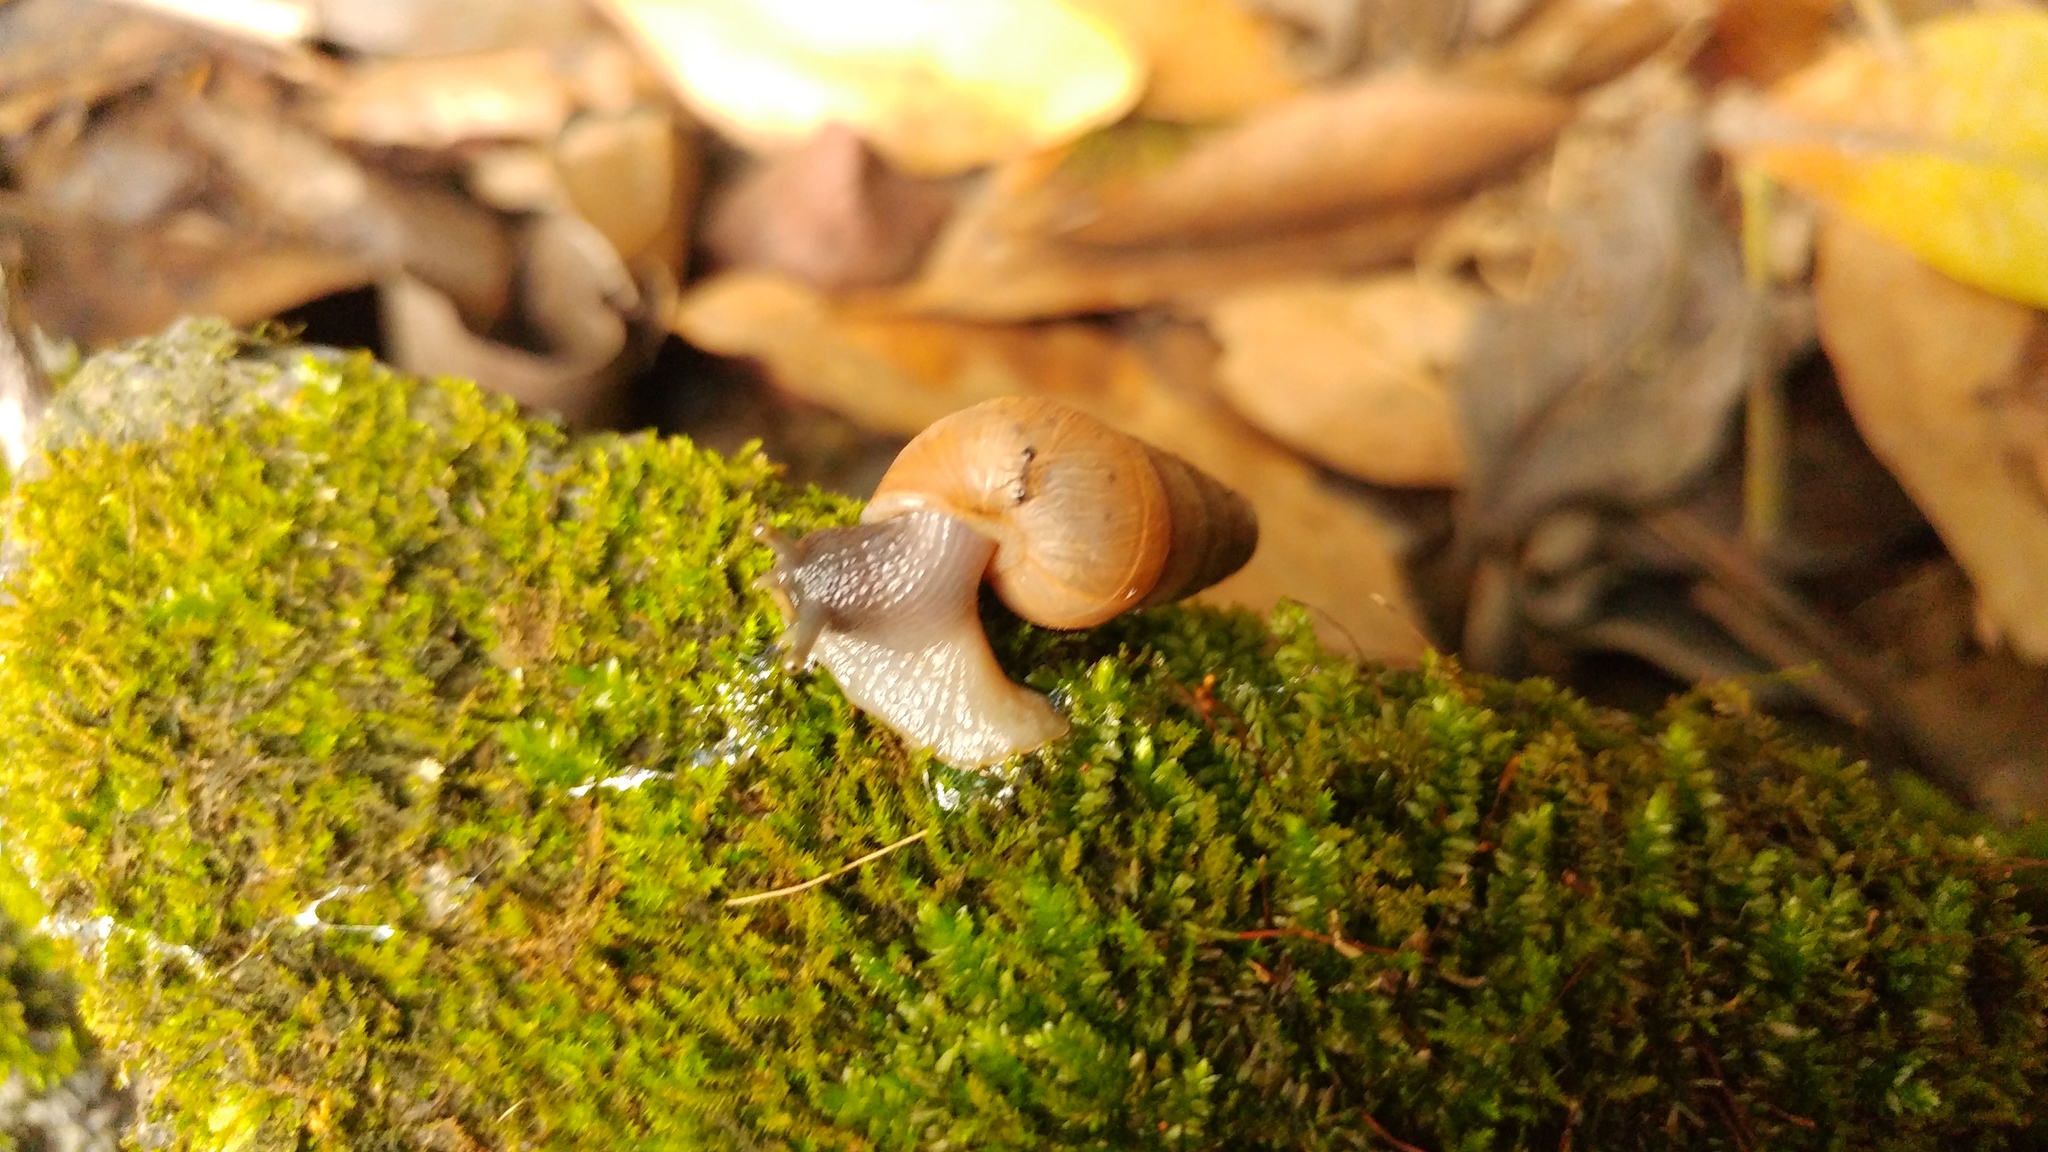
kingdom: Animalia
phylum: Mollusca
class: Gastropoda
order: Stylommatophora
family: Achatinidae
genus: Rumina
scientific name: Rumina decollata
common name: Decollate snail
